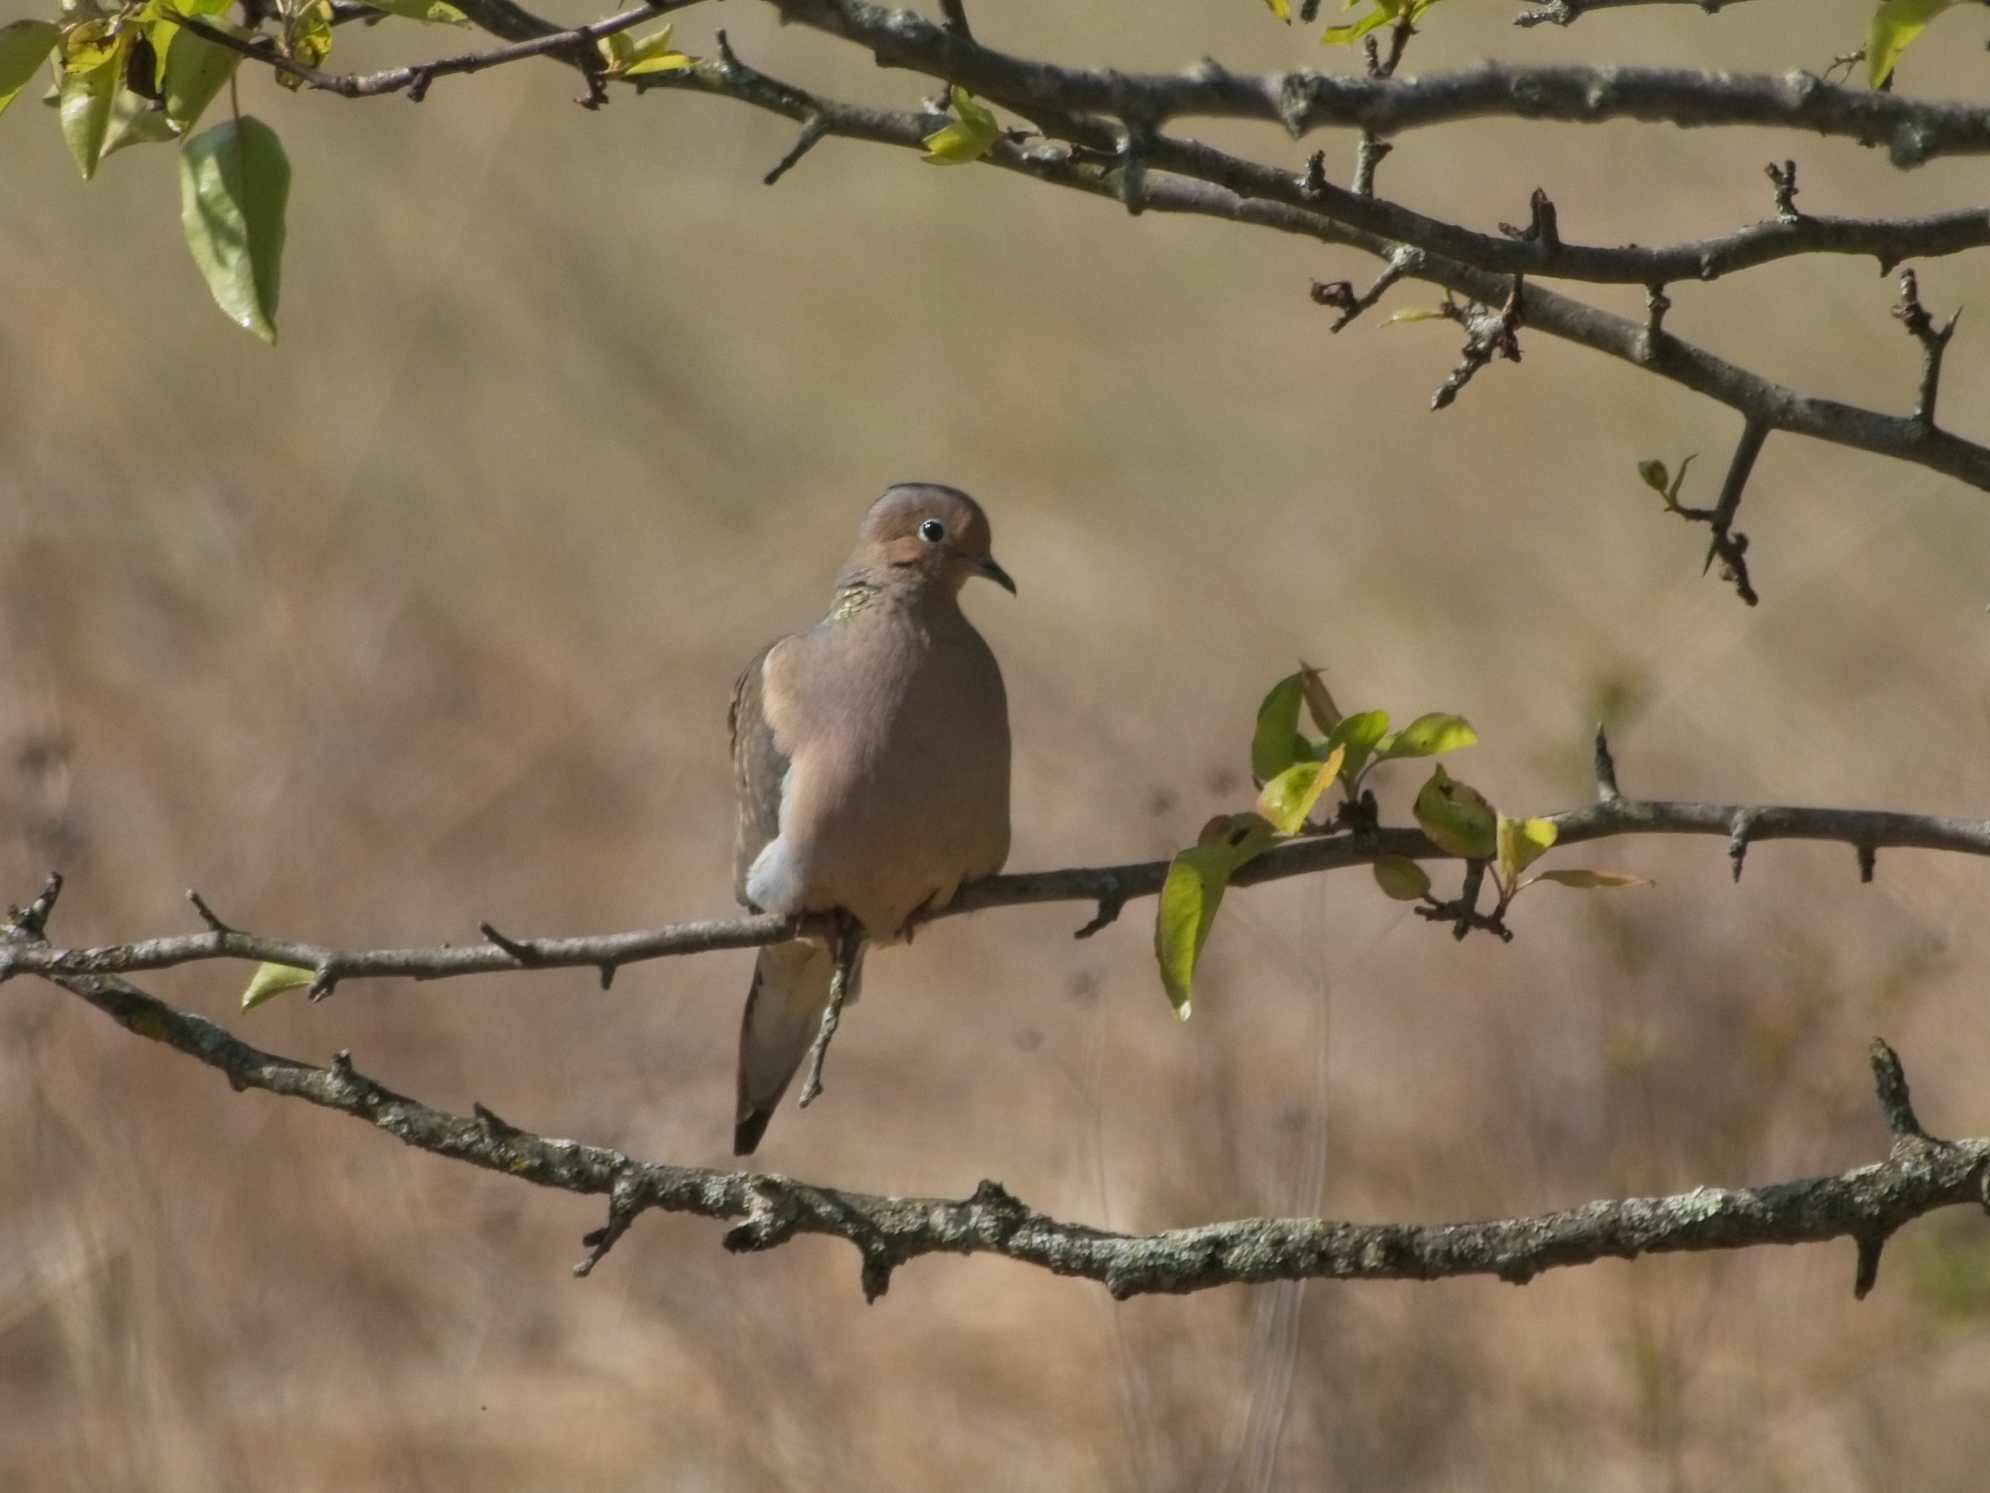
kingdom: Animalia
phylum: Chordata
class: Aves
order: Columbiformes
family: Columbidae
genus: Zenaida
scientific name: Zenaida macroura
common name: Mourning dove
